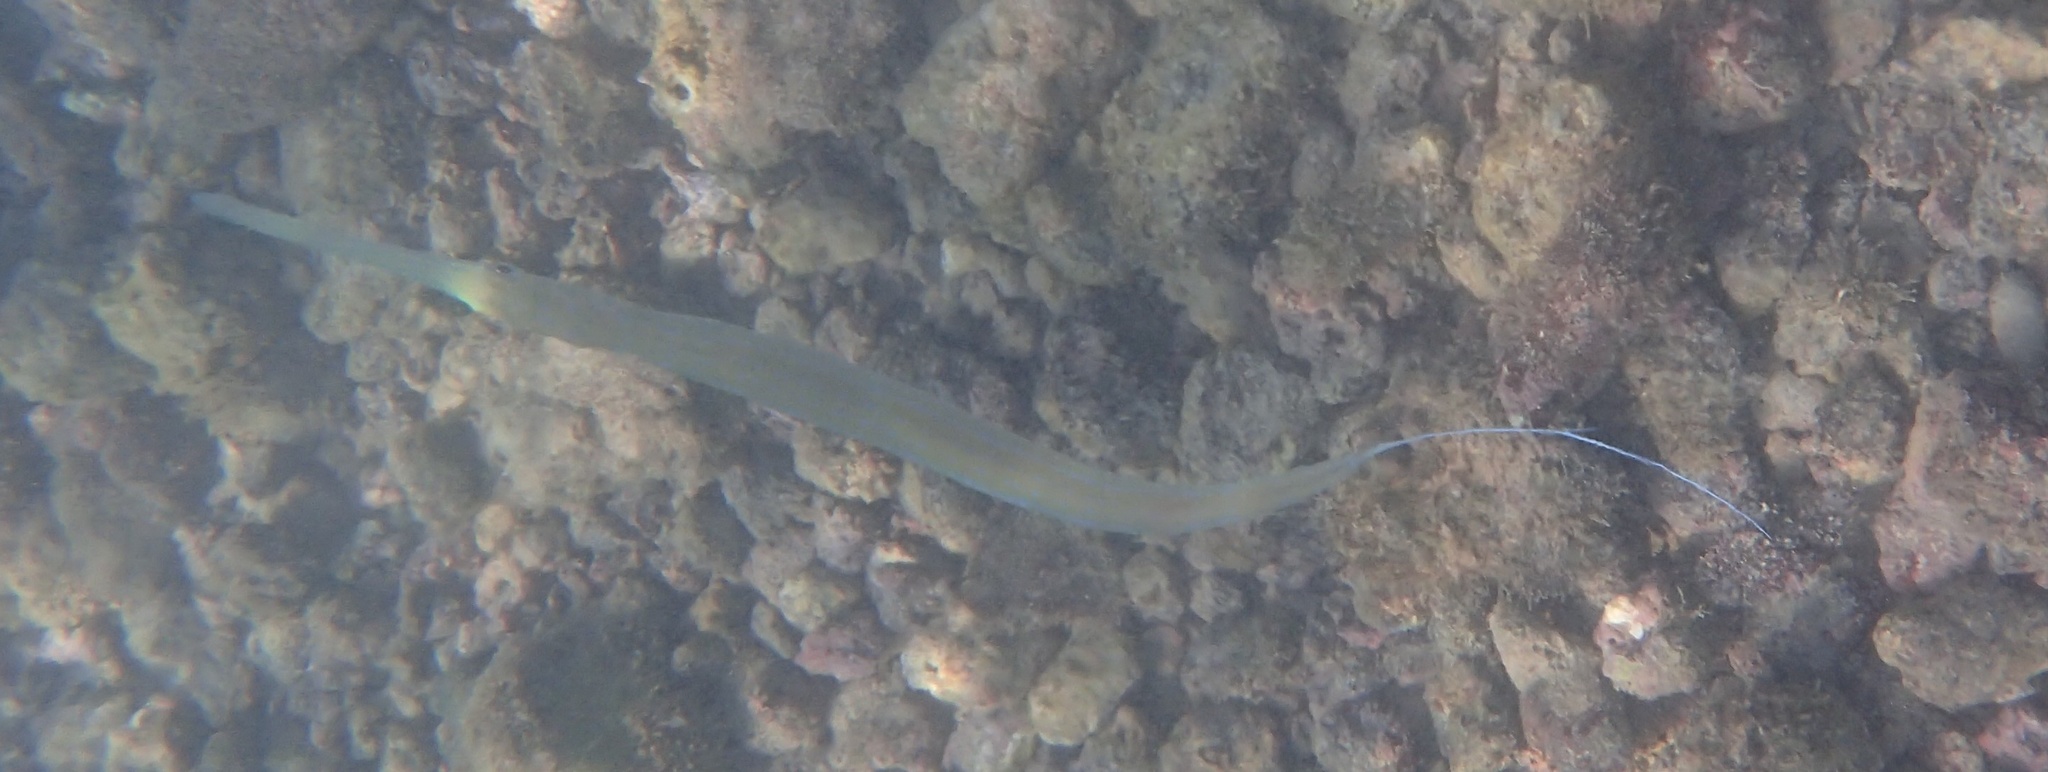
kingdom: Animalia
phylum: Chordata
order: Syngnathiformes
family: Fistulariidae
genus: Fistularia
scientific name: Fistularia commersonii
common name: Bluespotted cornetfish
